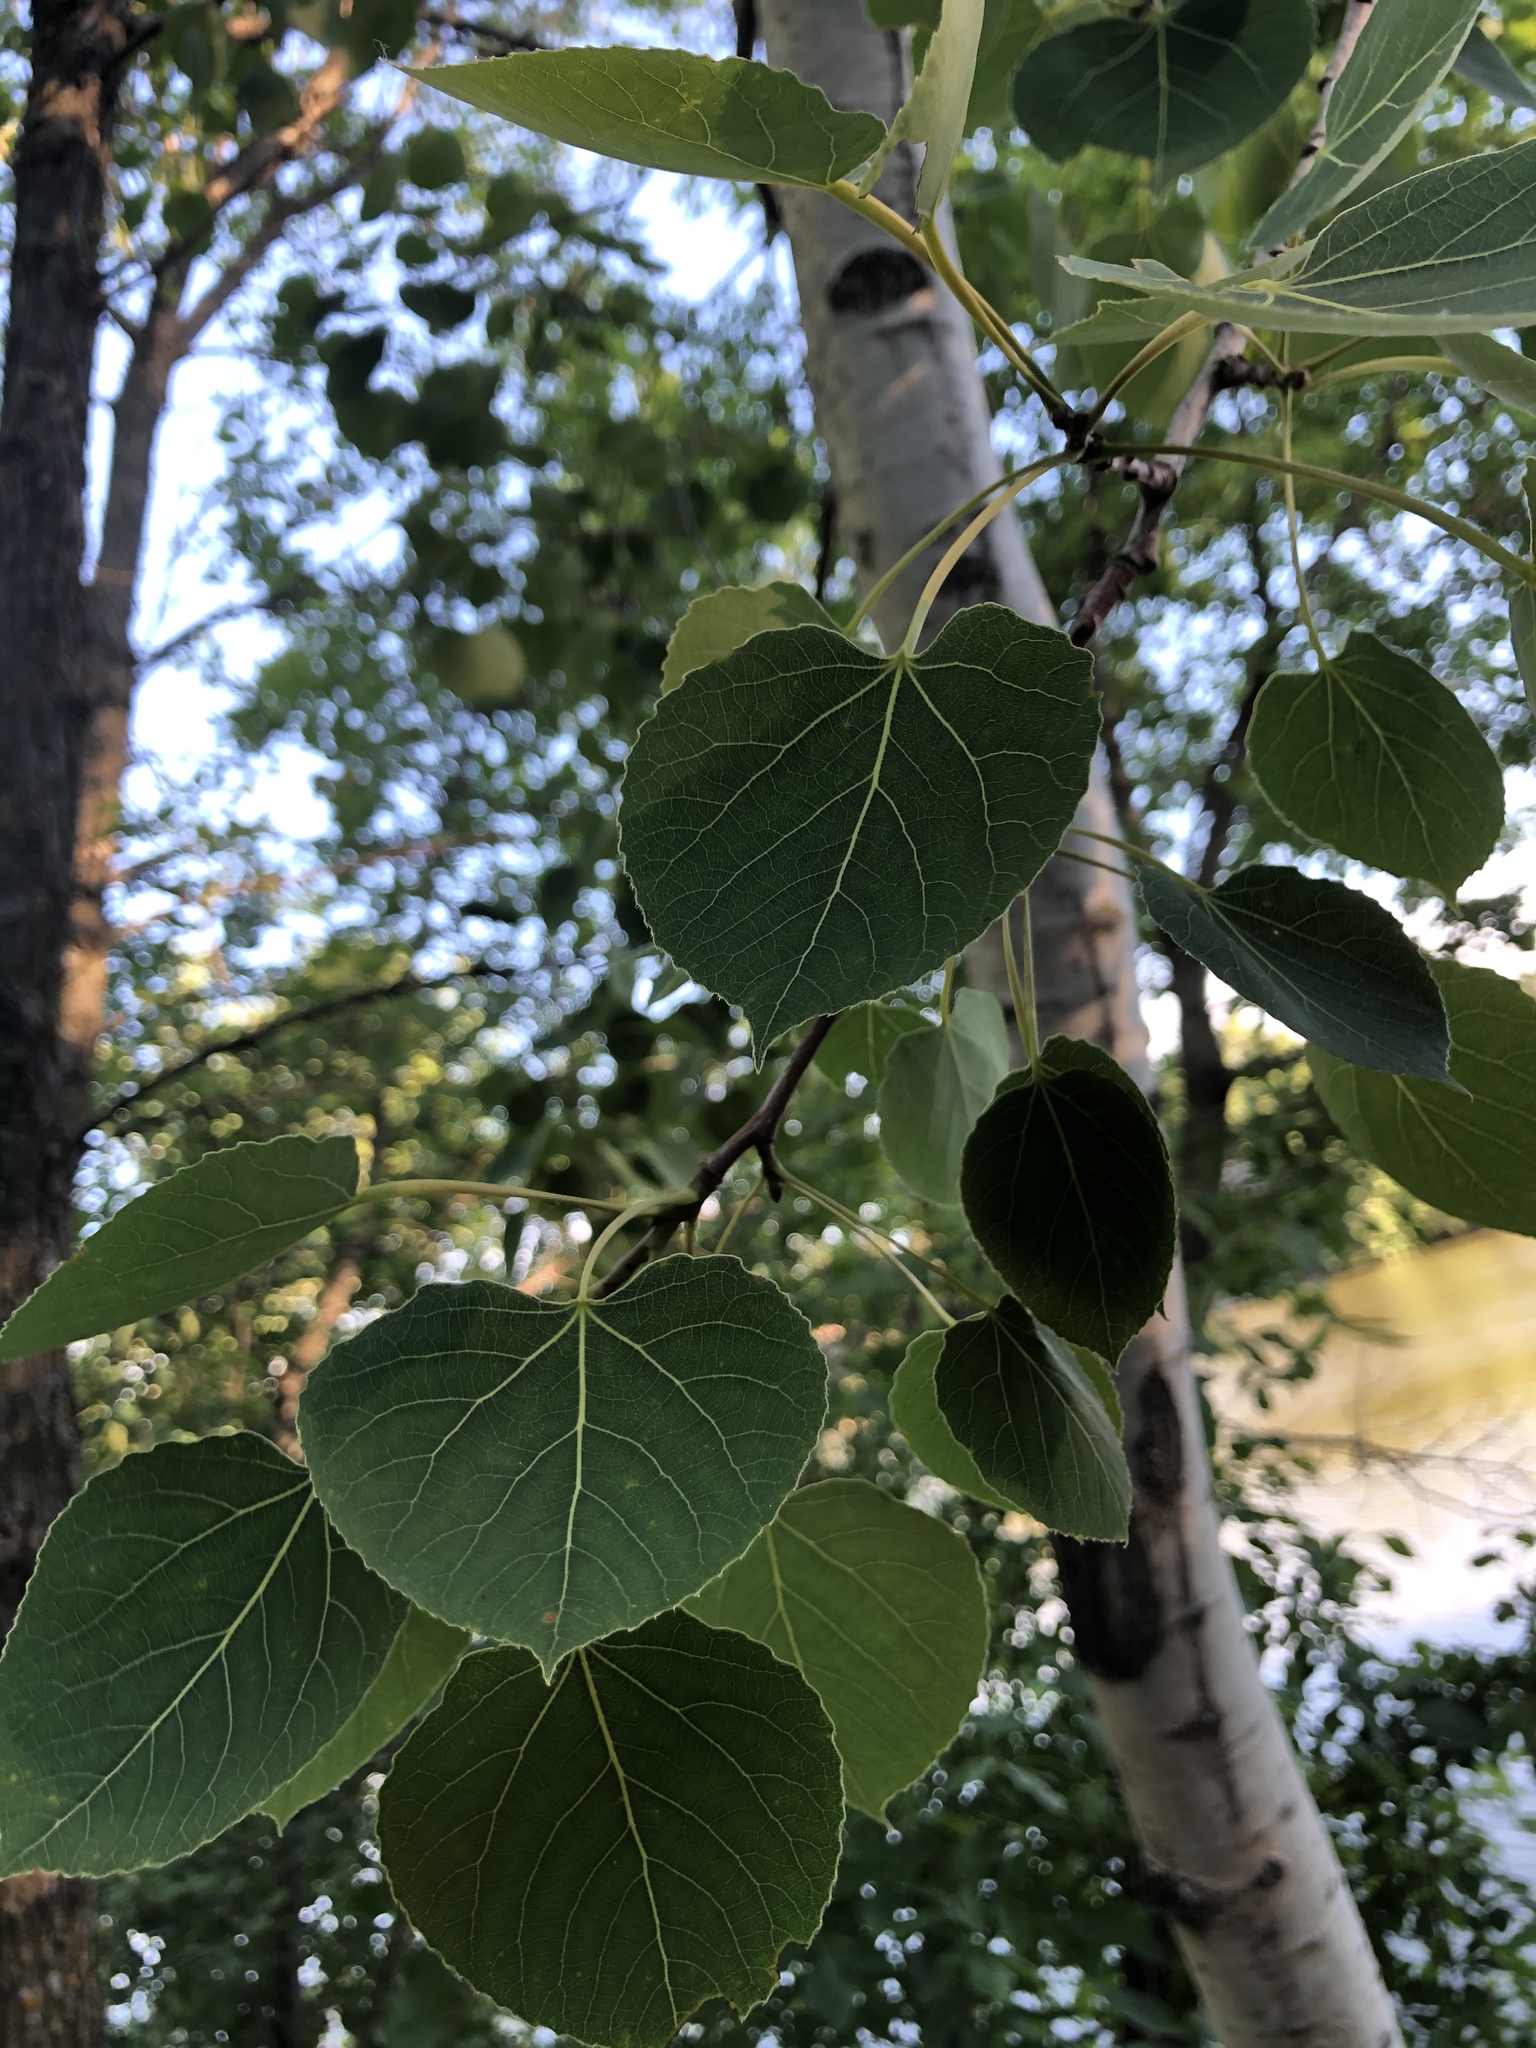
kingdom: Plantae
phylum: Tracheophyta
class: Magnoliopsida
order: Malpighiales
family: Salicaceae
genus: Populus
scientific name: Populus tremuloides
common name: Quaking aspen
